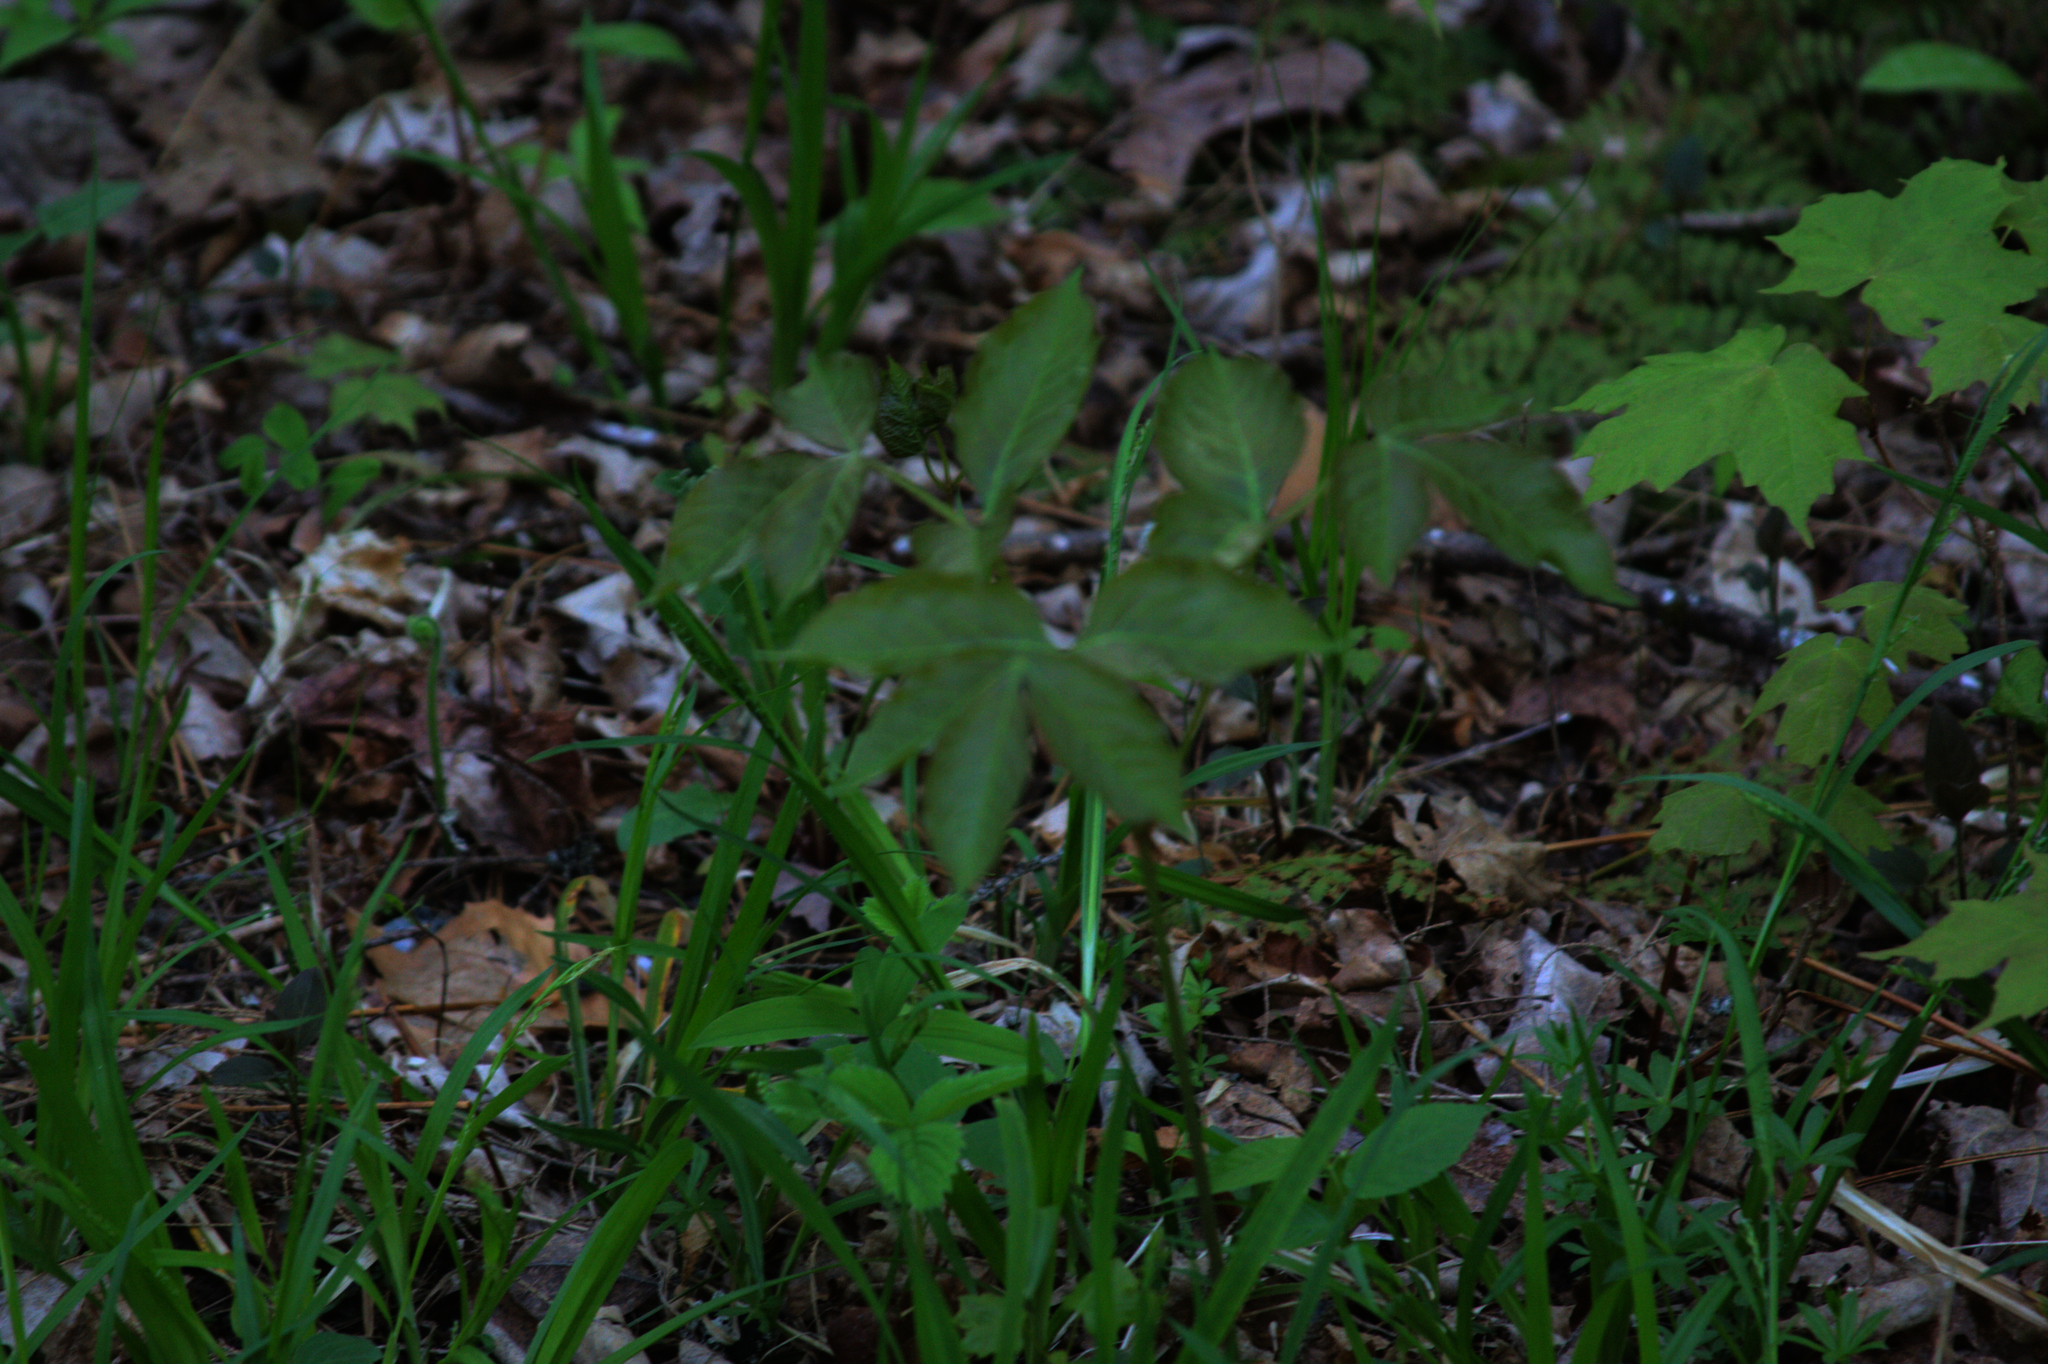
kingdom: Plantae
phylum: Tracheophyta
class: Magnoliopsida
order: Apiales
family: Araliaceae
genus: Aralia
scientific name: Aralia nudicaulis
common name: Wild sarsaparilla
